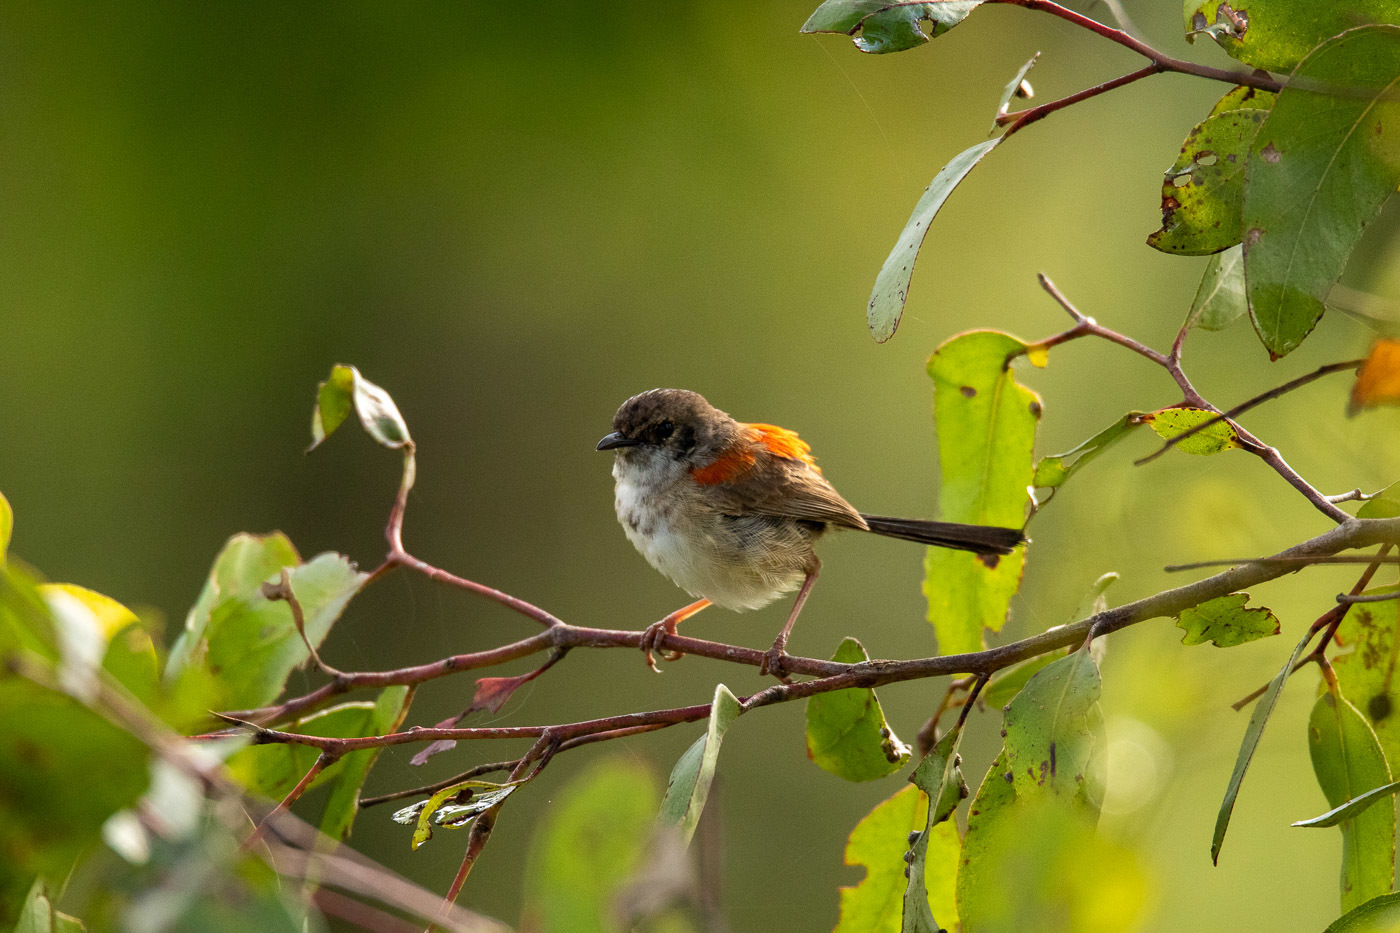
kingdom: Animalia
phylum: Chordata
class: Aves
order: Passeriformes
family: Maluridae
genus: Malurus
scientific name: Malurus melanocephalus
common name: Red-backed fairywren
